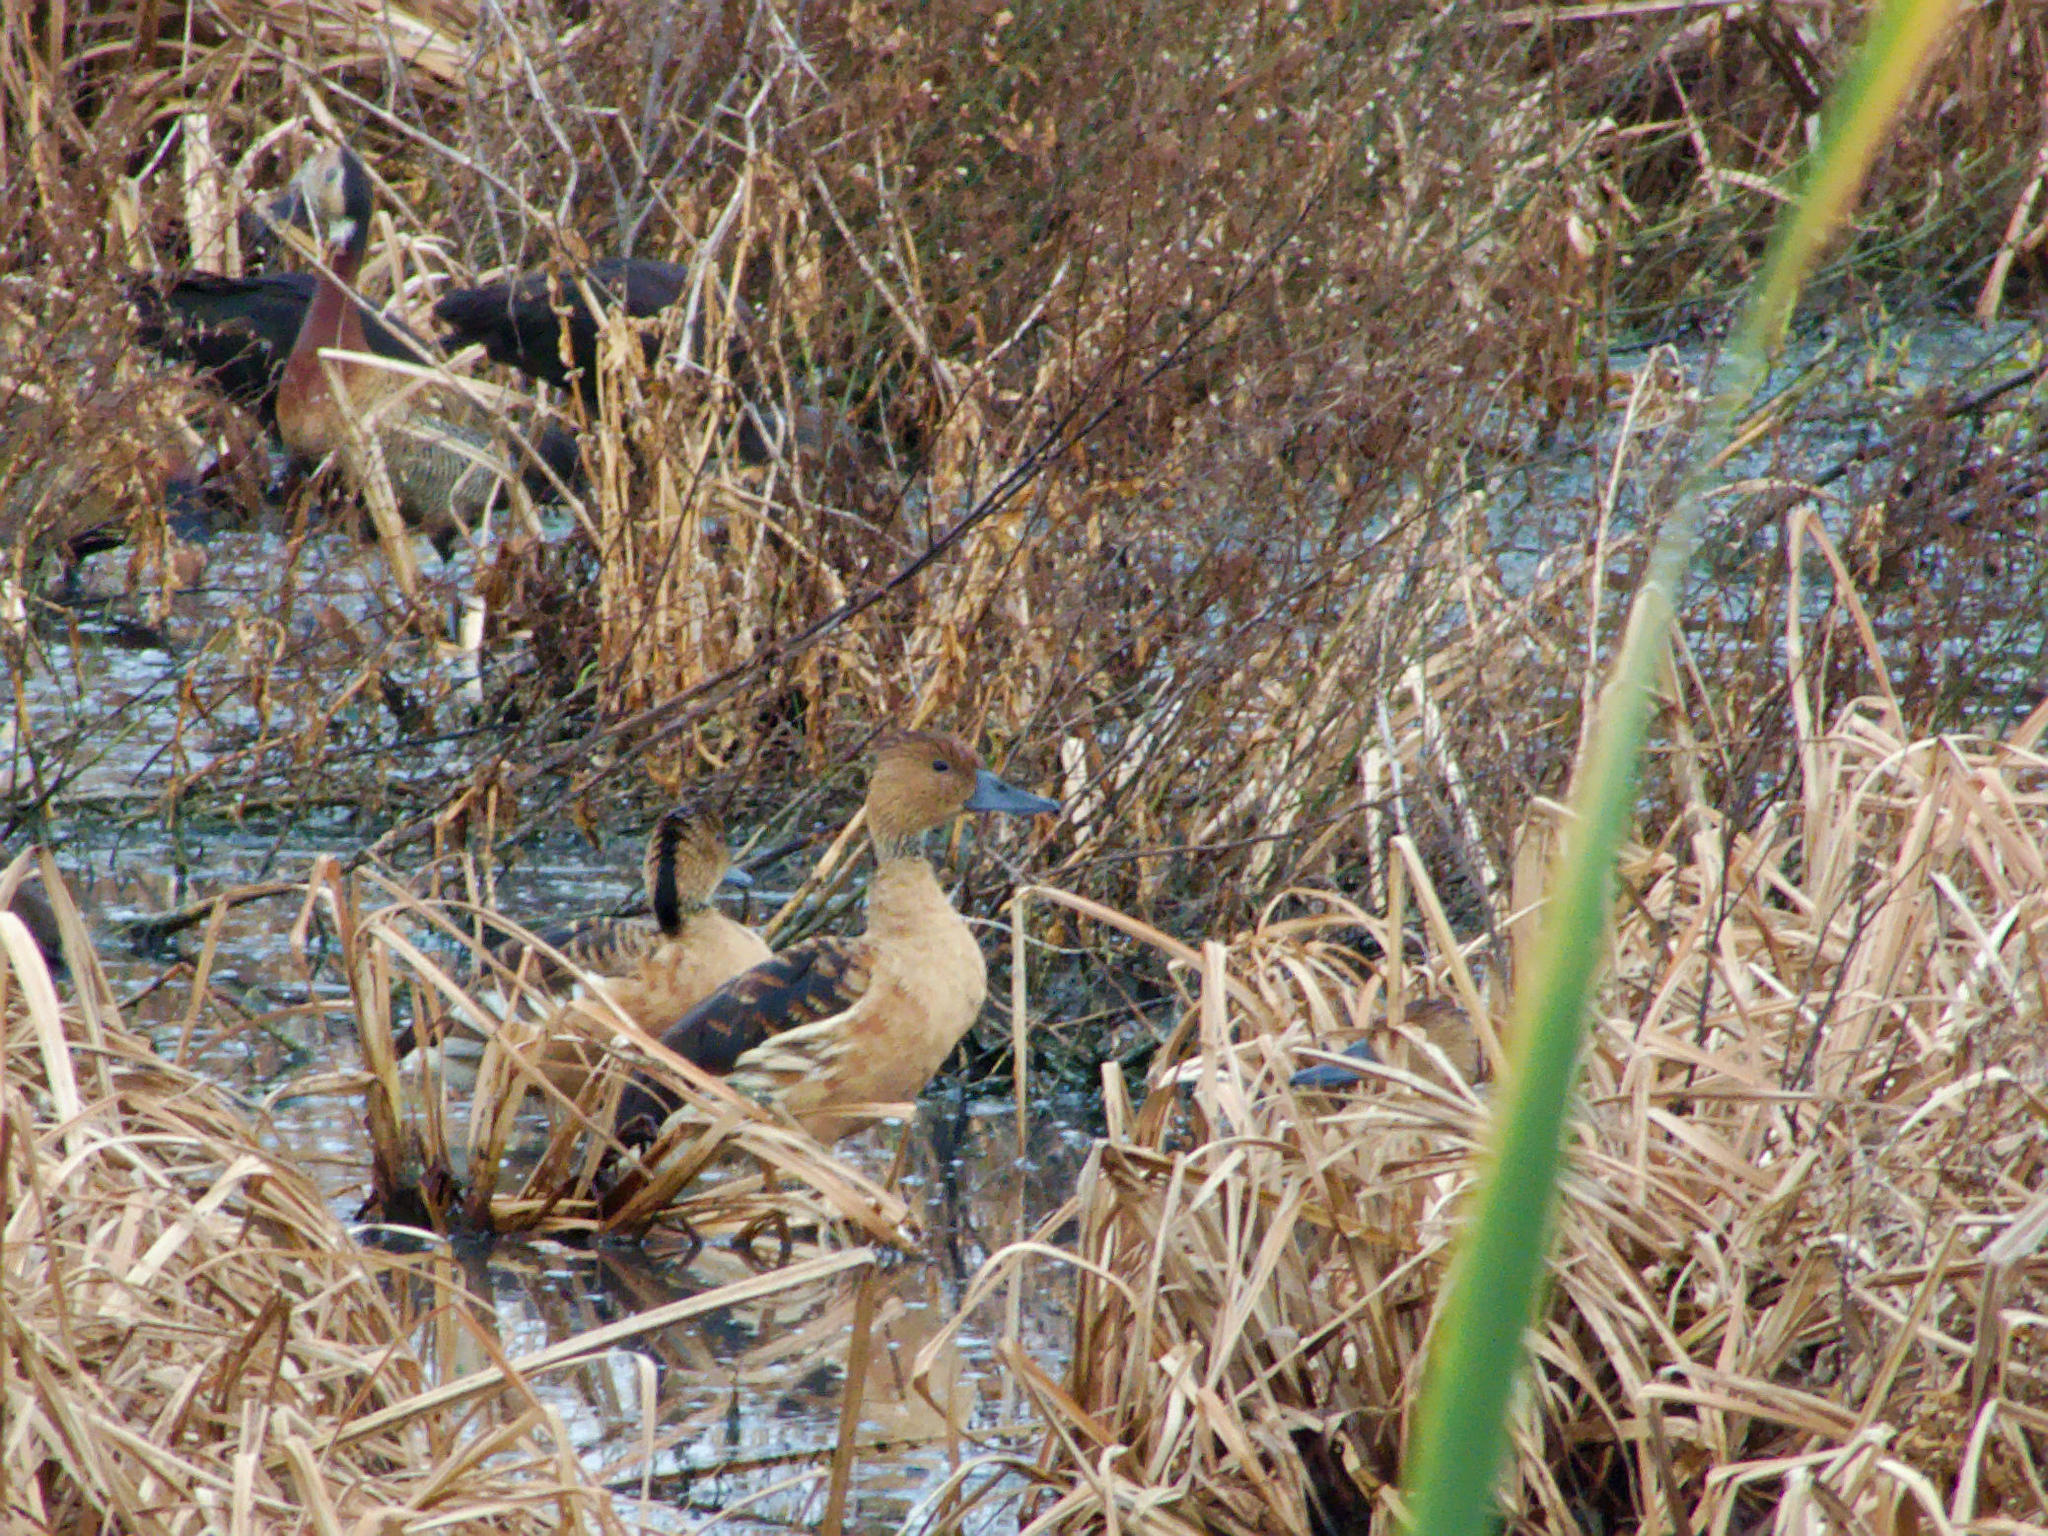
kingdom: Animalia
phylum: Chordata
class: Aves
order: Anseriformes
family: Anatidae
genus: Dendrocygna
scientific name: Dendrocygna bicolor
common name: Fulvous whistling duck
